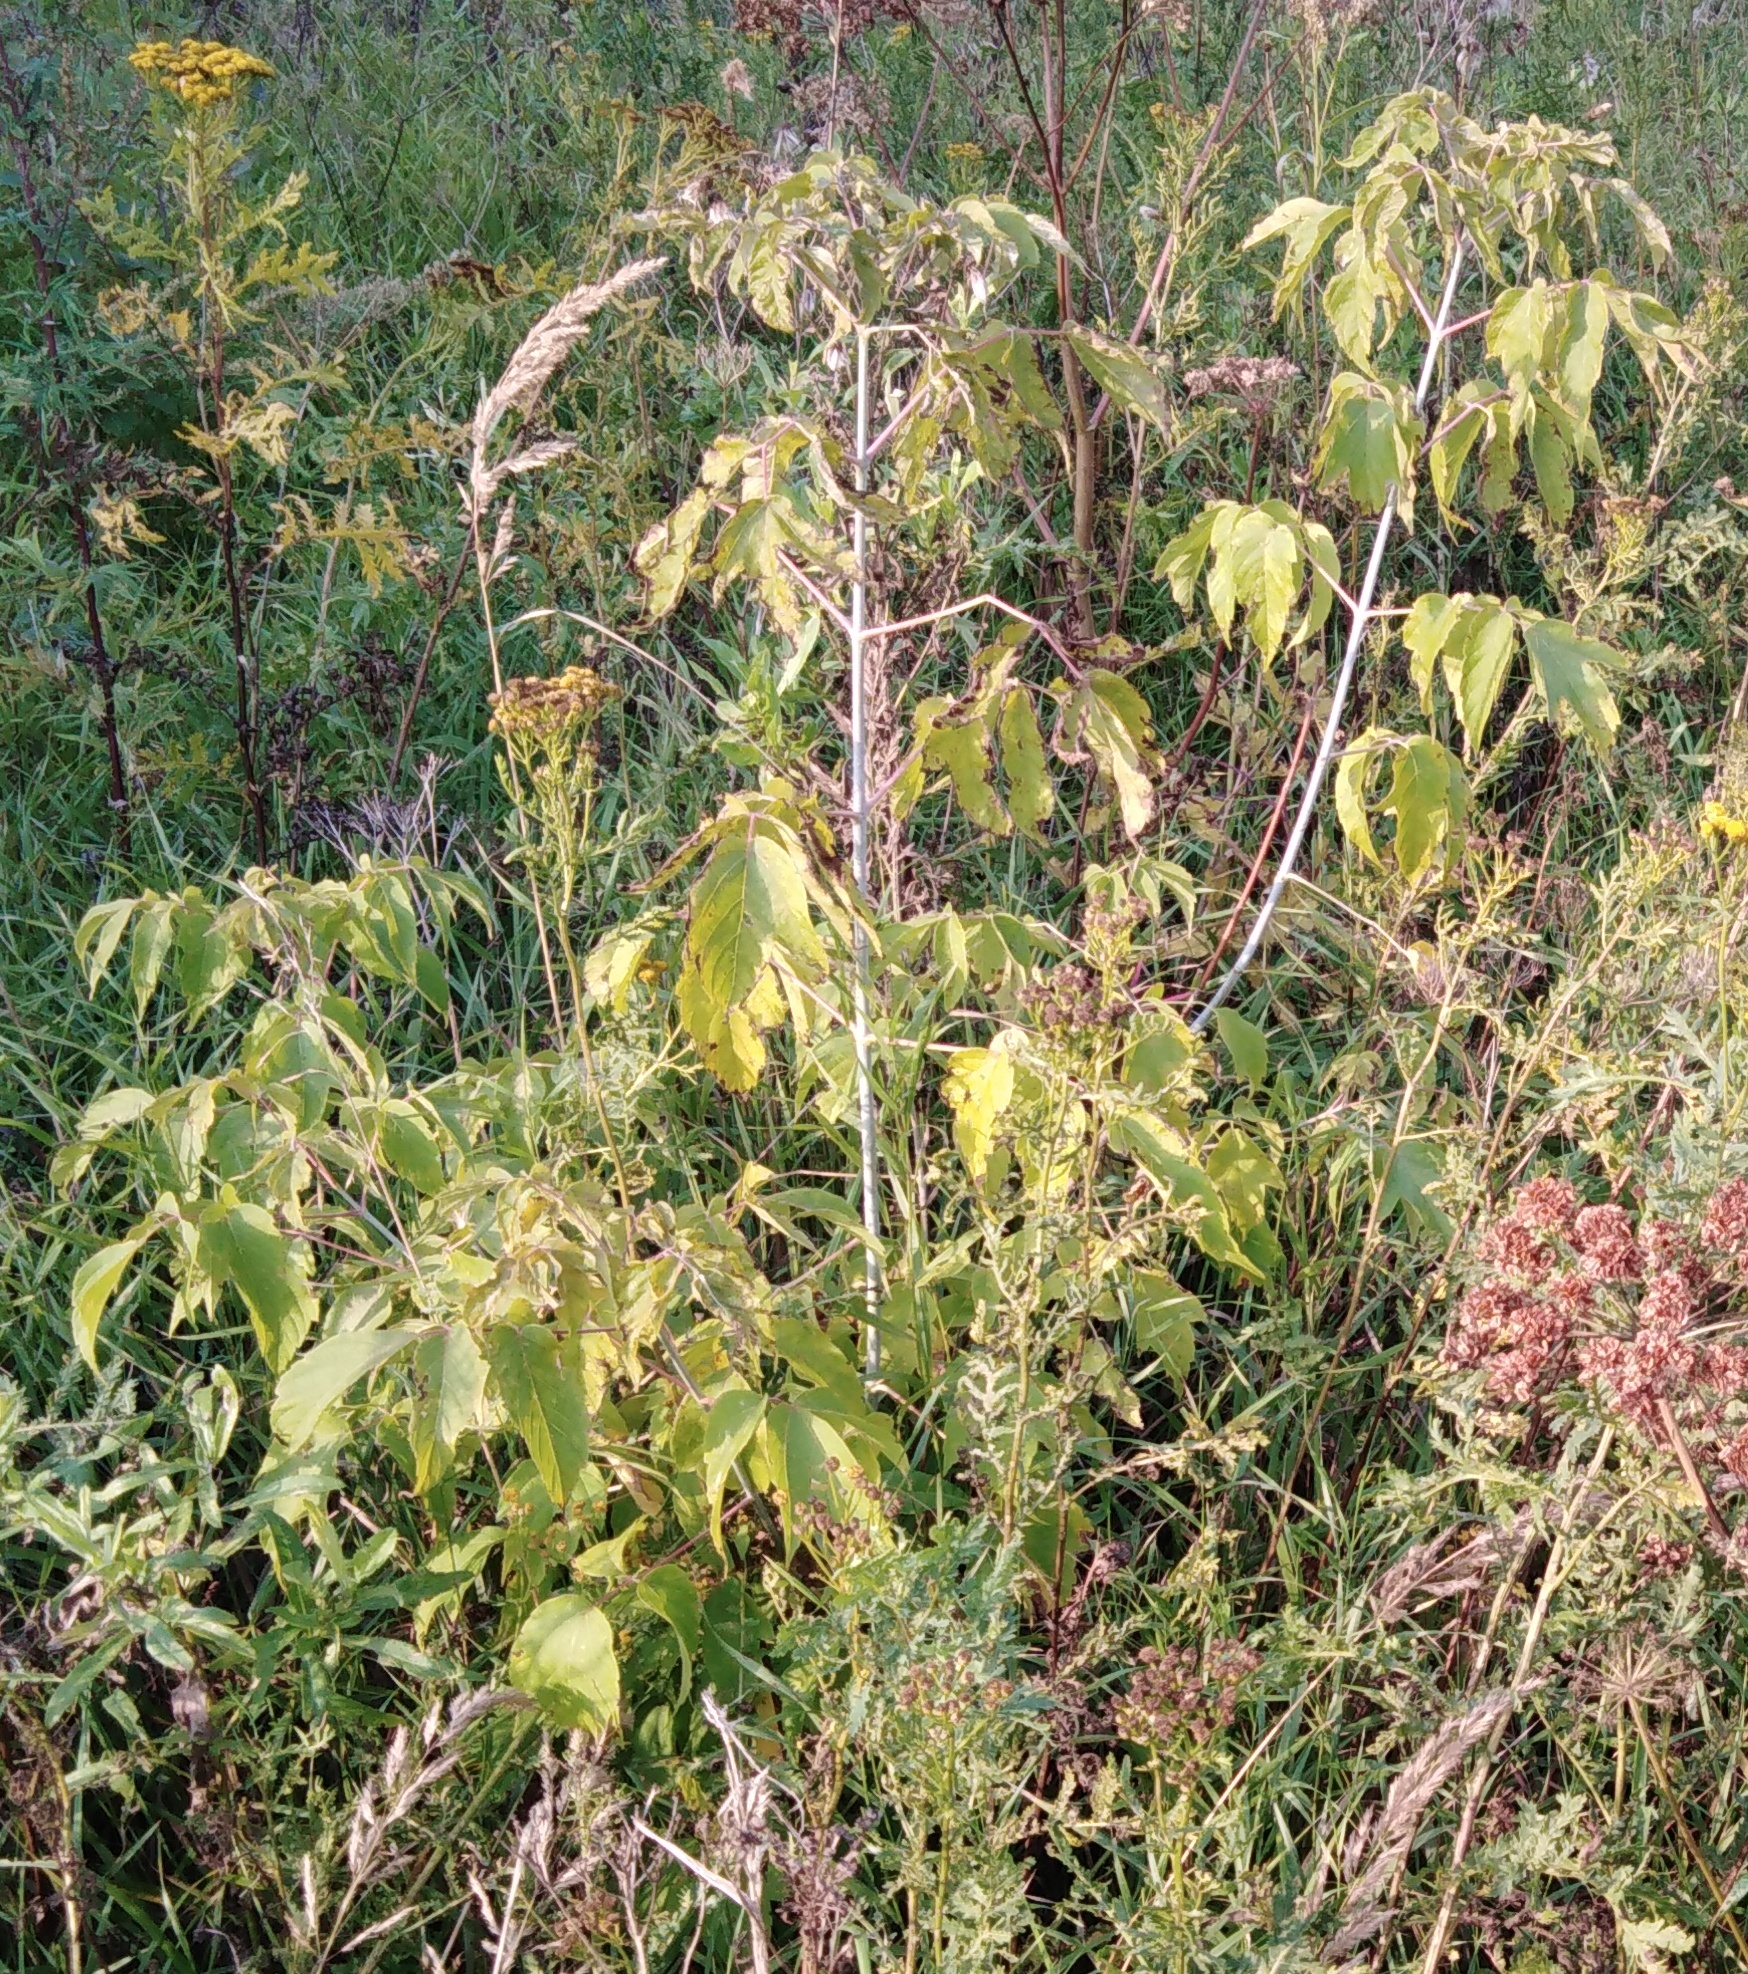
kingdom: Plantae
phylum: Tracheophyta
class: Magnoliopsida
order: Sapindales
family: Sapindaceae
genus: Acer
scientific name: Acer negundo
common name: Ashleaf maple
